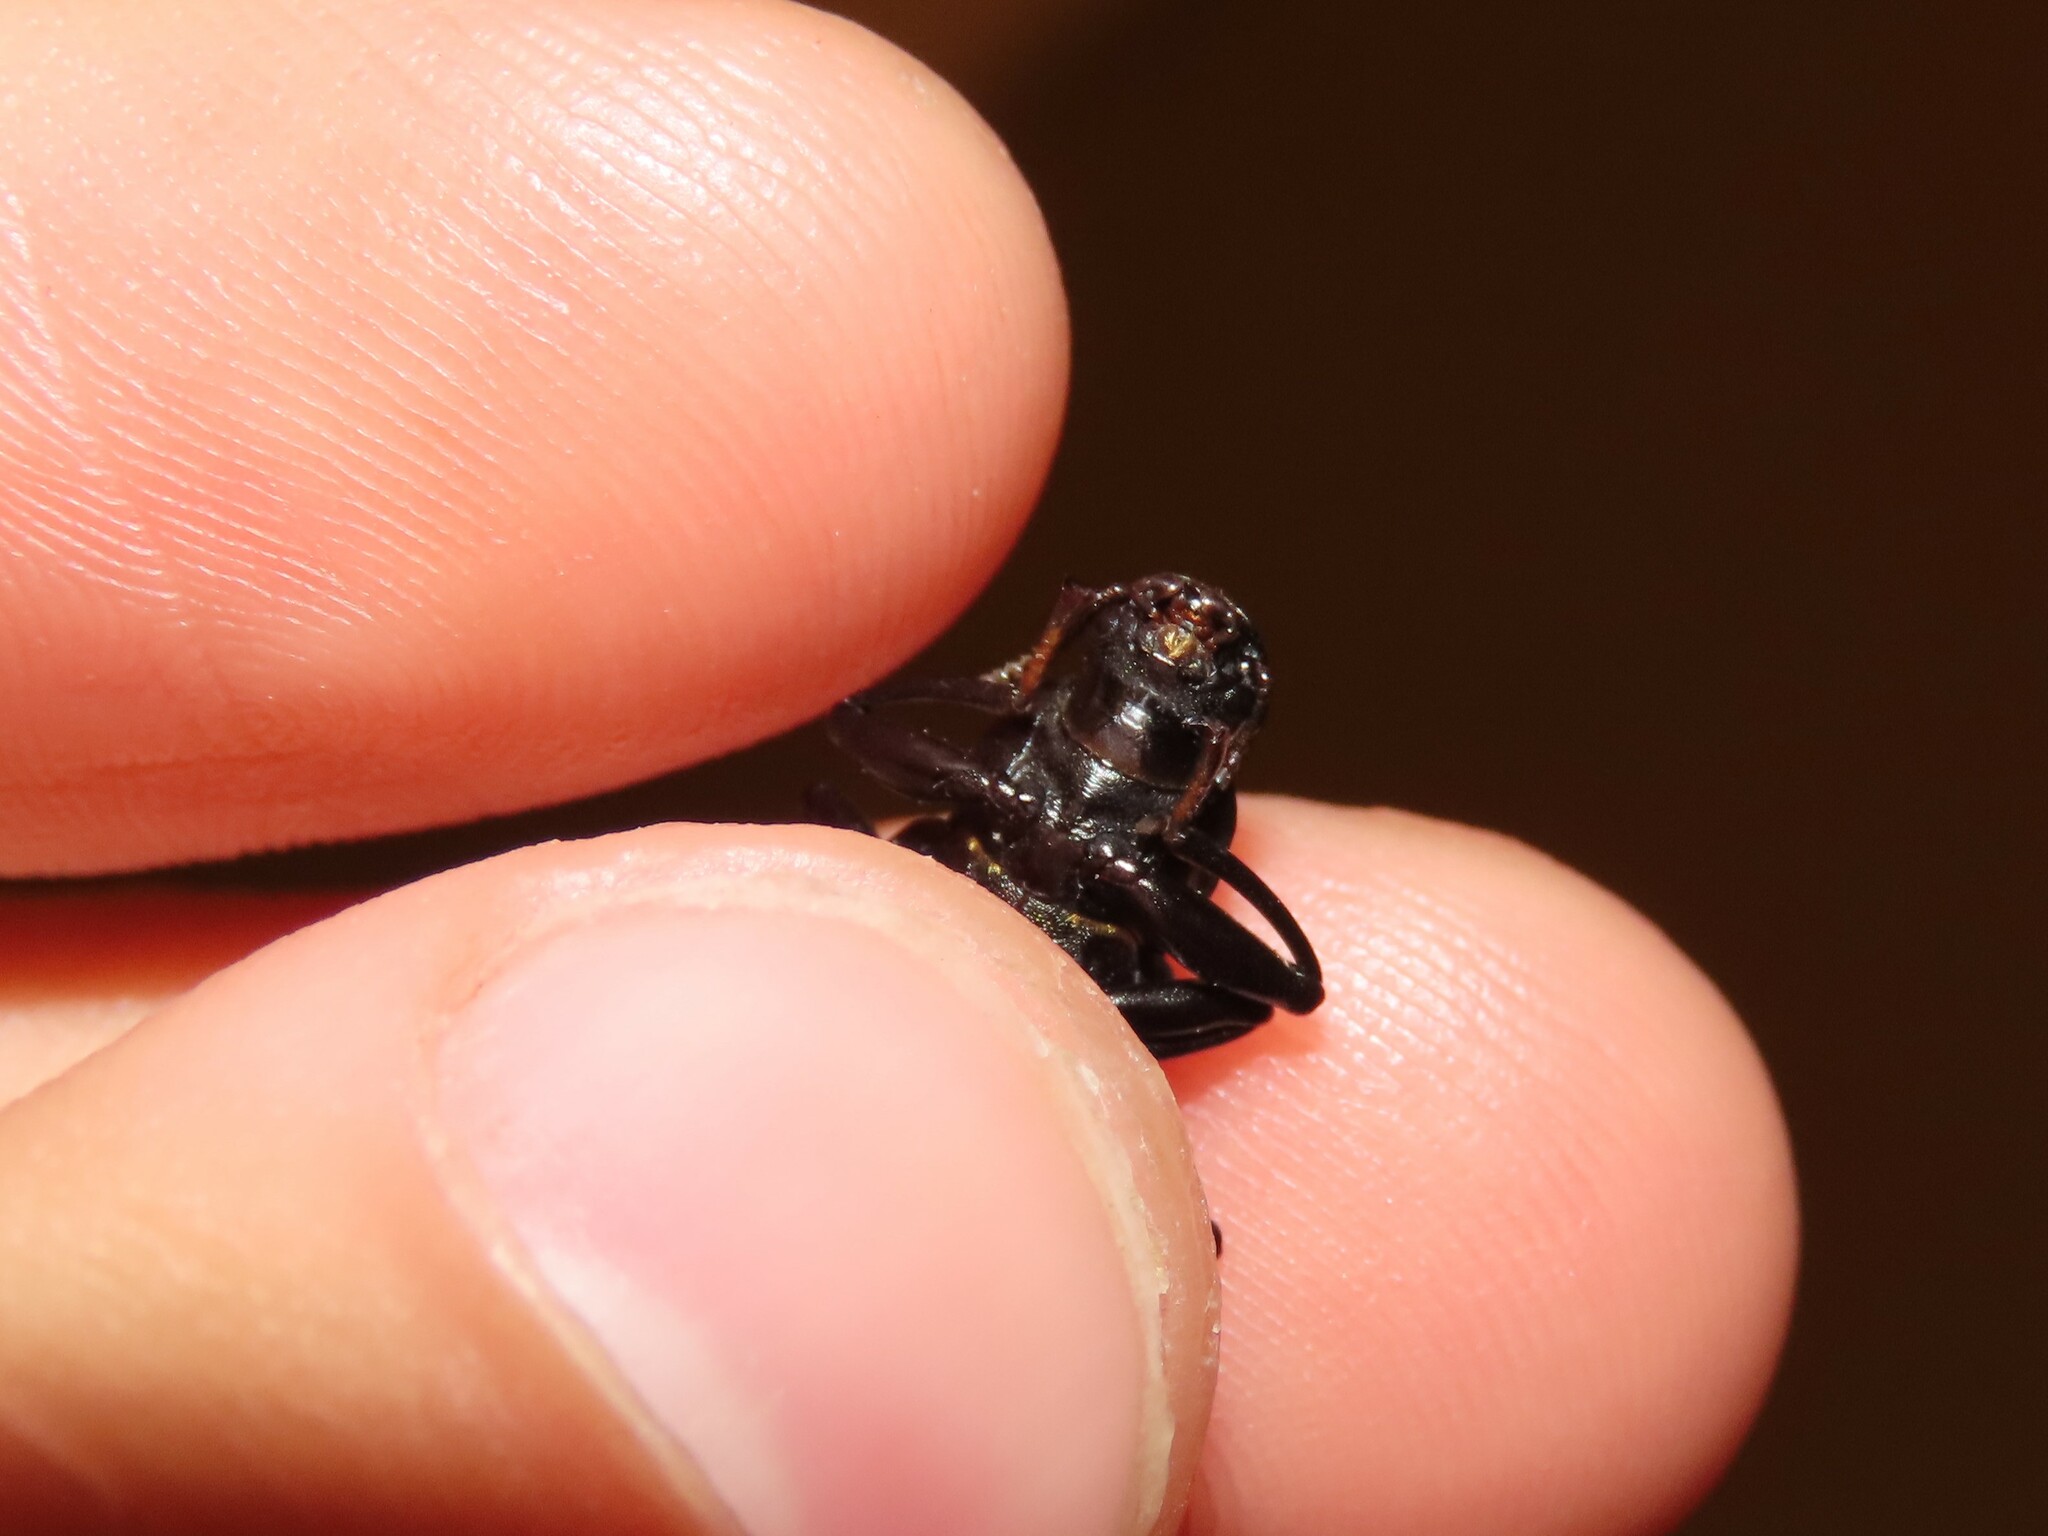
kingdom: Animalia
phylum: Arthropoda
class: Insecta
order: Coleoptera
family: Tenebrionidae
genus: Alobates
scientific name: Alobates barbatus
